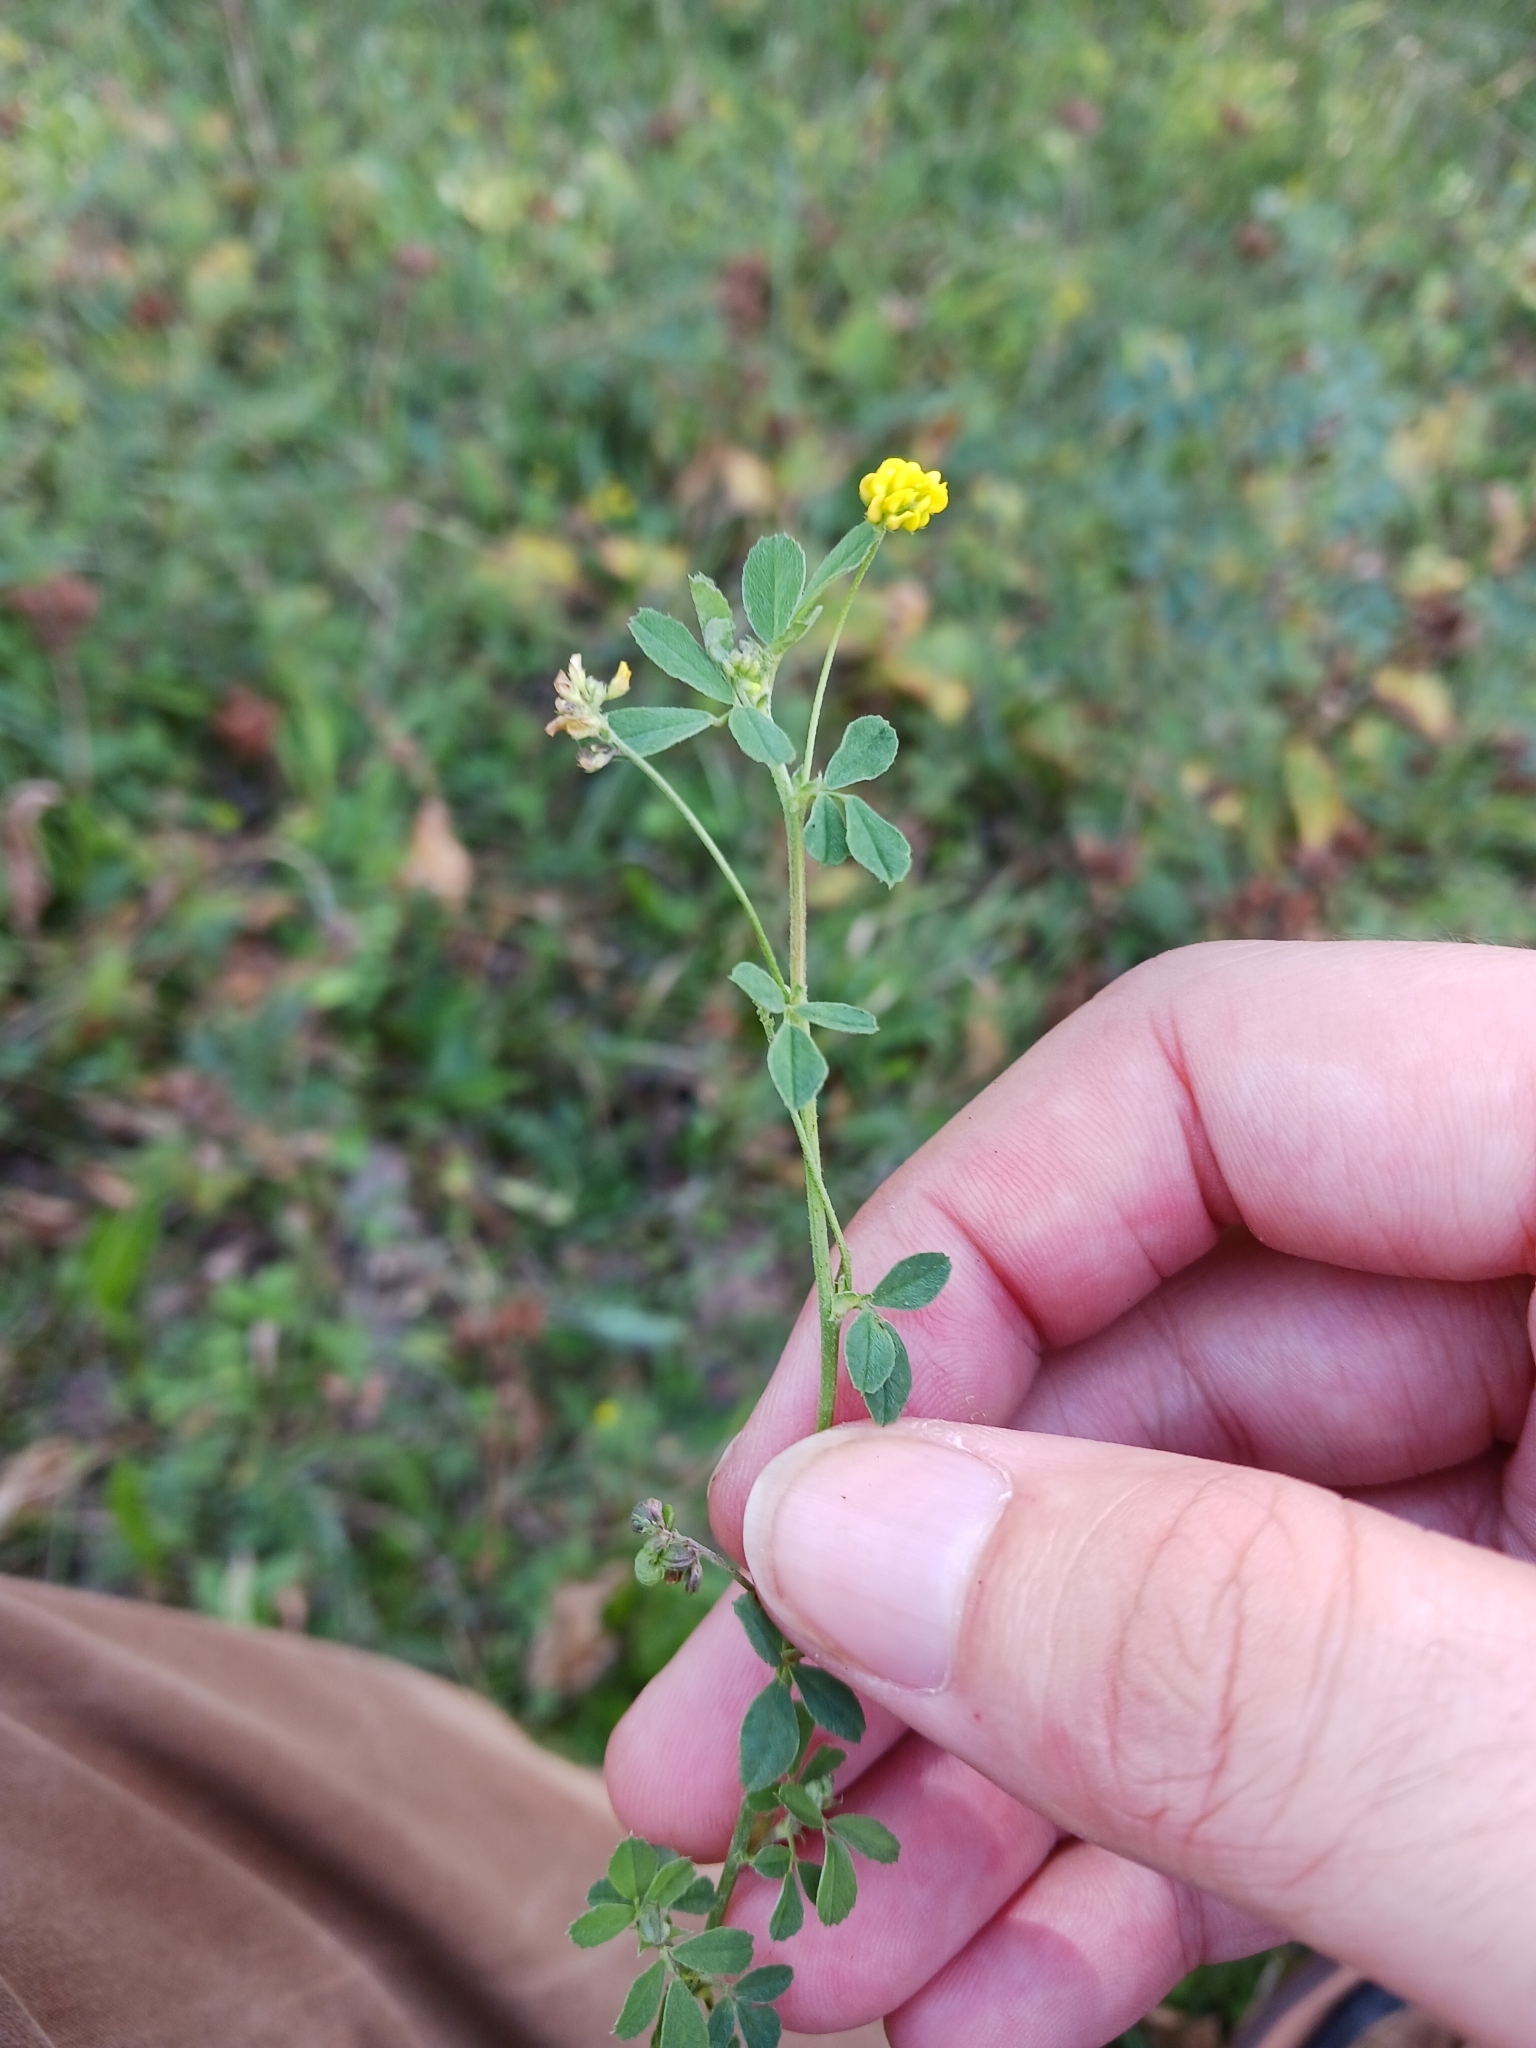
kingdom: Plantae
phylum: Tracheophyta
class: Magnoliopsida
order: Fabales
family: Fabaceae
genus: Medicago
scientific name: Medicago lupulina
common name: Black medick
